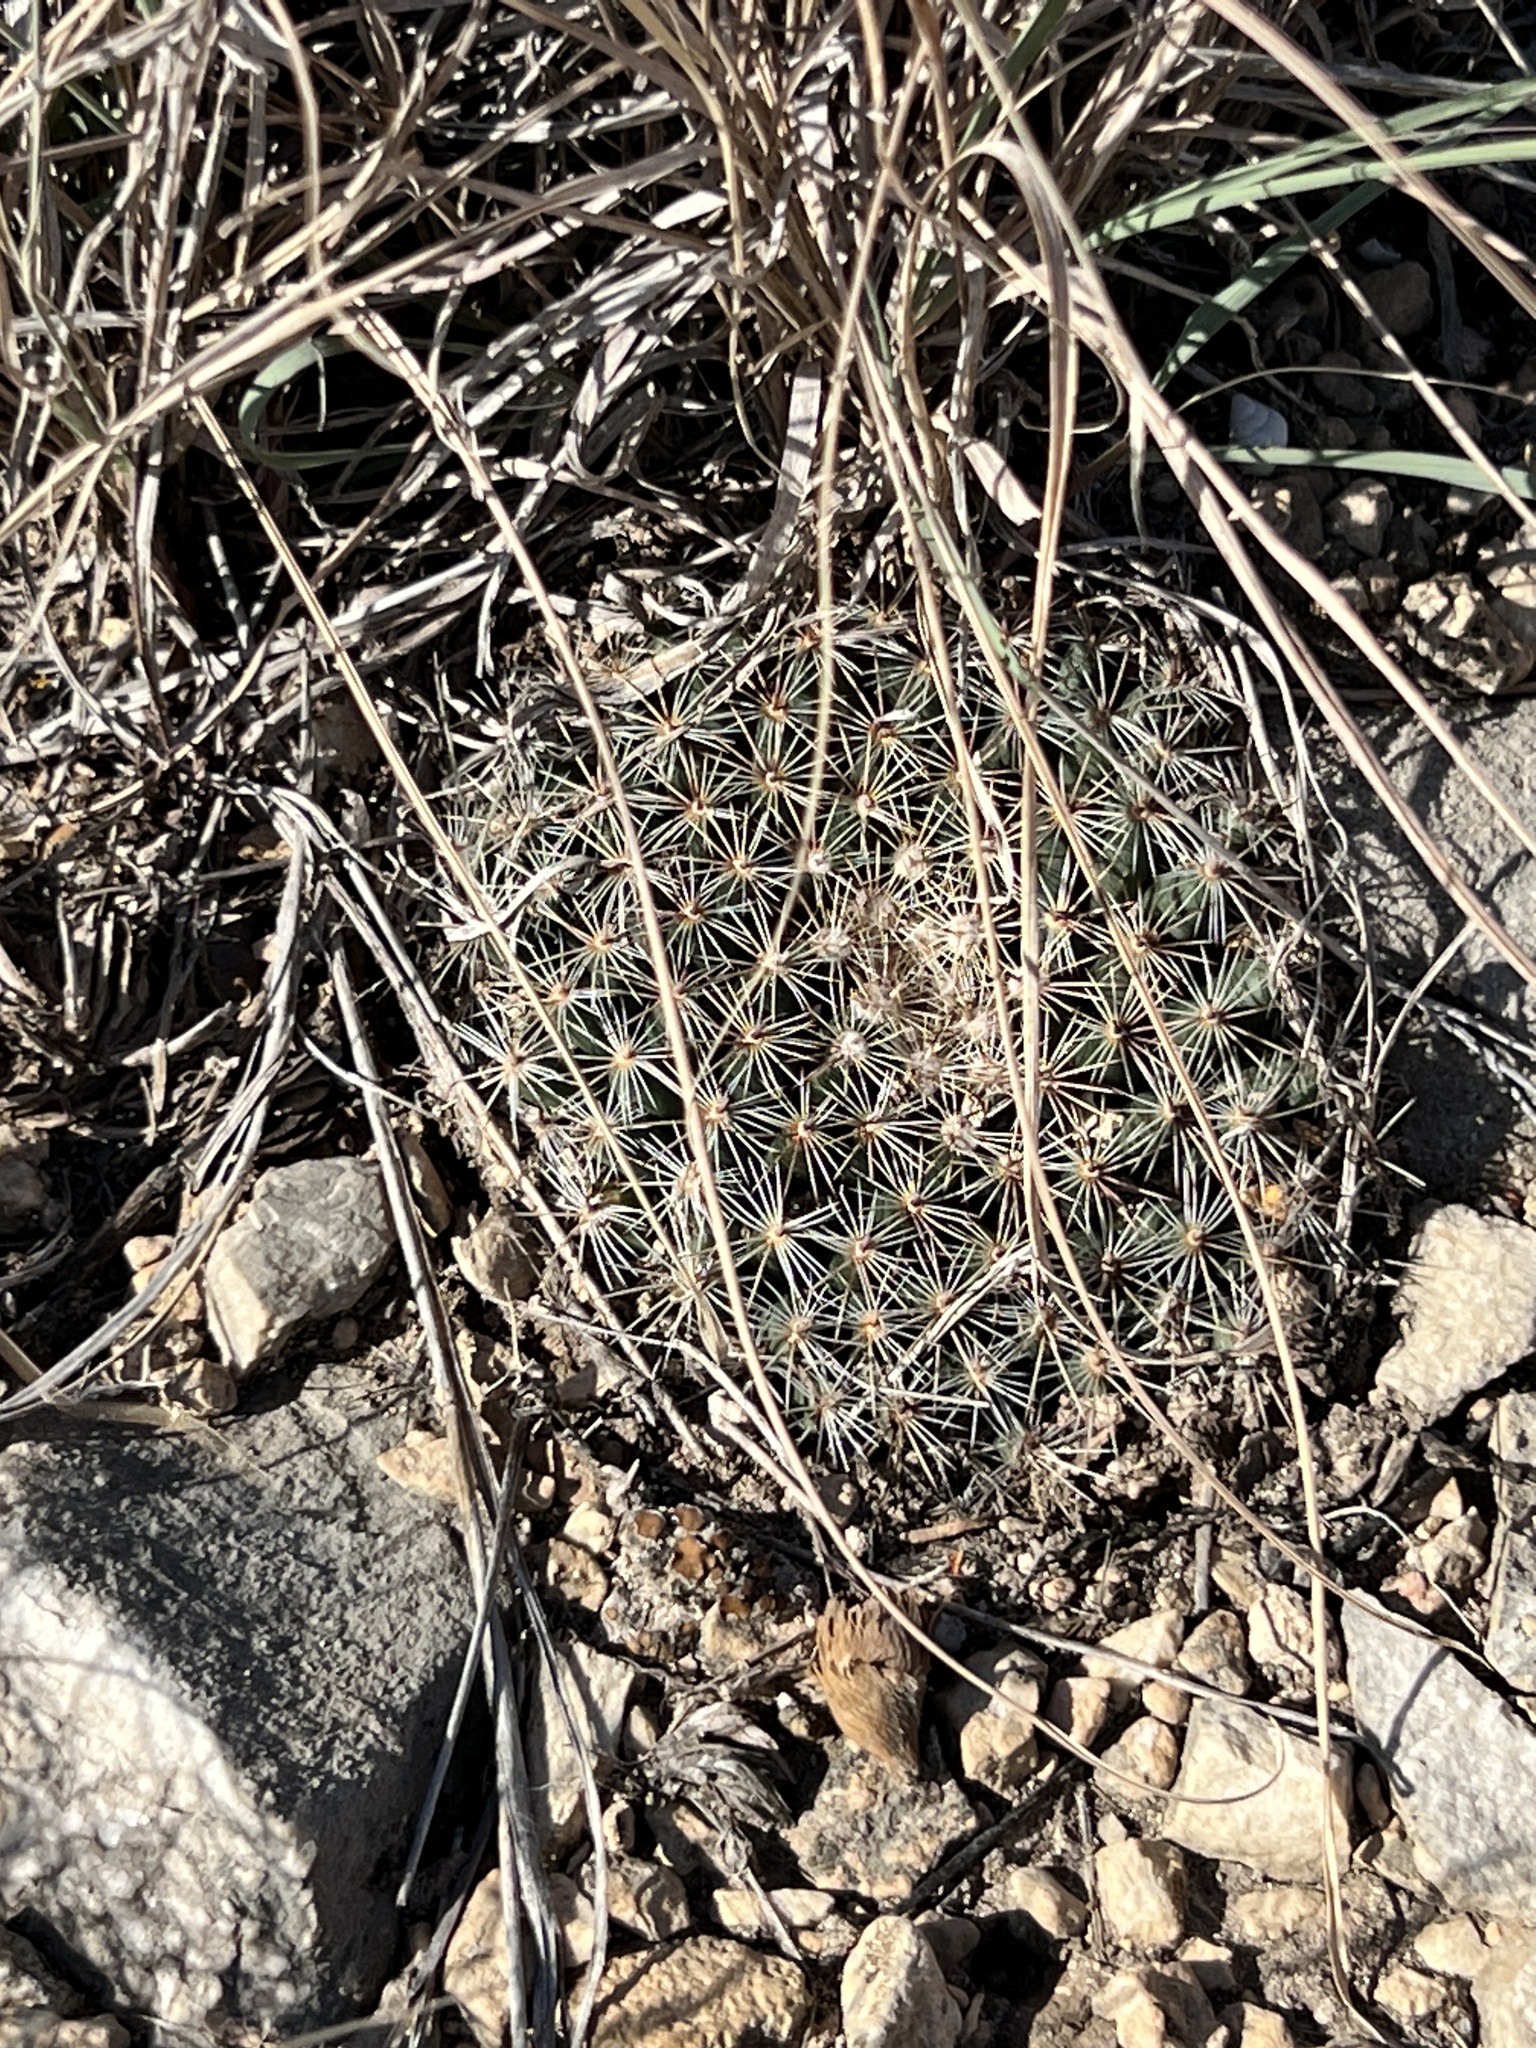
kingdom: Plantae
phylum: Tracheophyta
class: Magnoliopsida
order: Caryophyllales
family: Cactaceae
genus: Mammillaria
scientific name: Mammillaria heyderi
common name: Little nipple cactus
